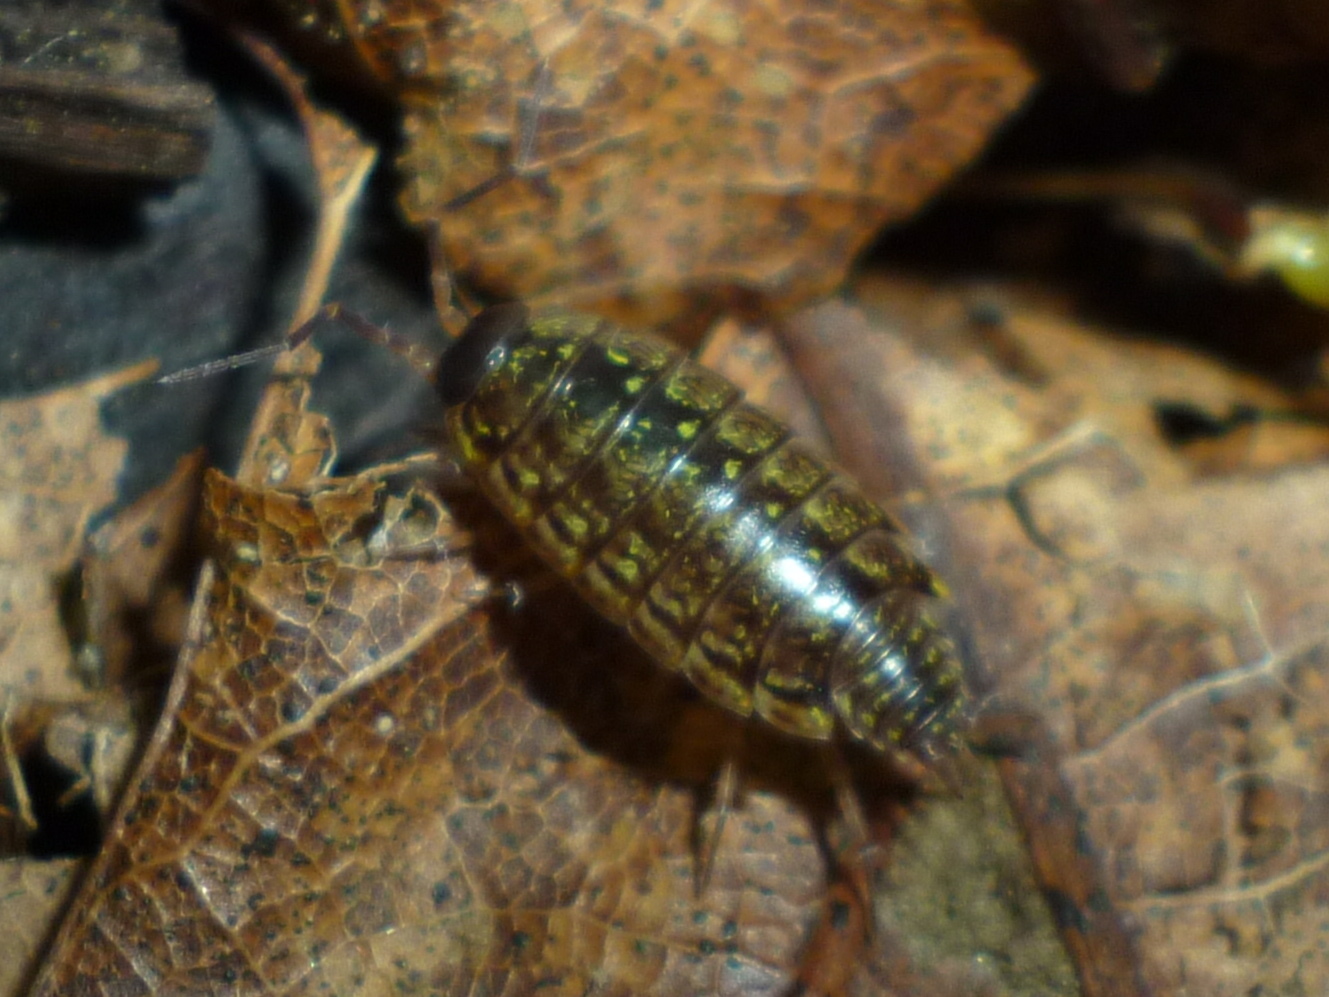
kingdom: Animalia
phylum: Arthropoda
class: Malacostraca
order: Isopoda
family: Philosciidae
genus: Philoscia
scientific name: Philoscia muscorum
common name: Common striped woodlouse
